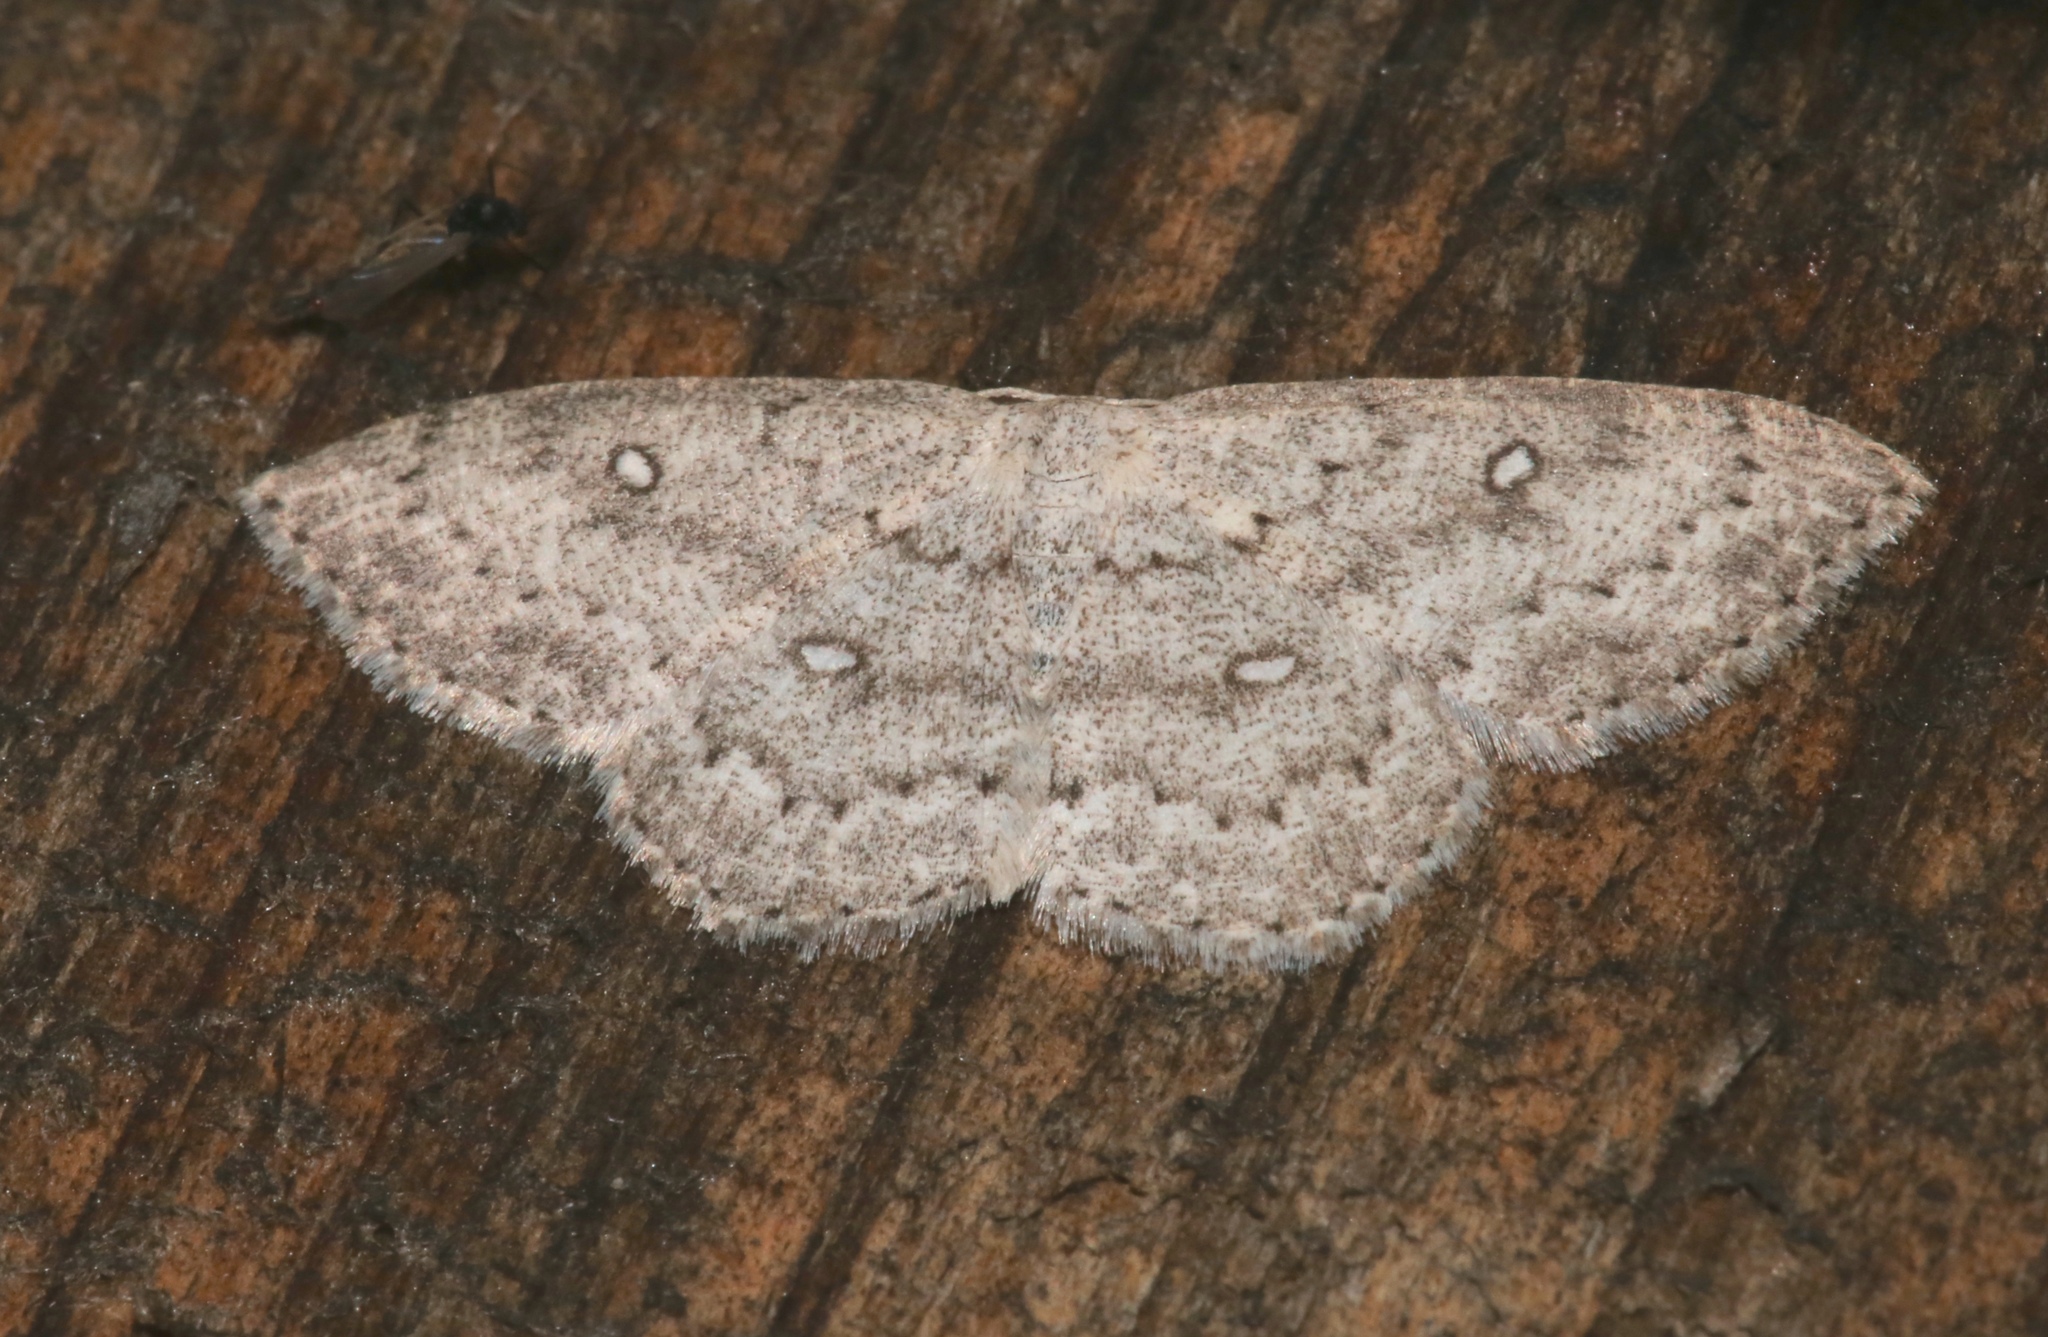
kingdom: Animalia
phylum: Arthropoda
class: Insecta
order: Lepidoptera
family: Geometridae
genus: Cyclophora
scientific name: Cyclophora pendulinaria
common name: Sweet fern geometer
